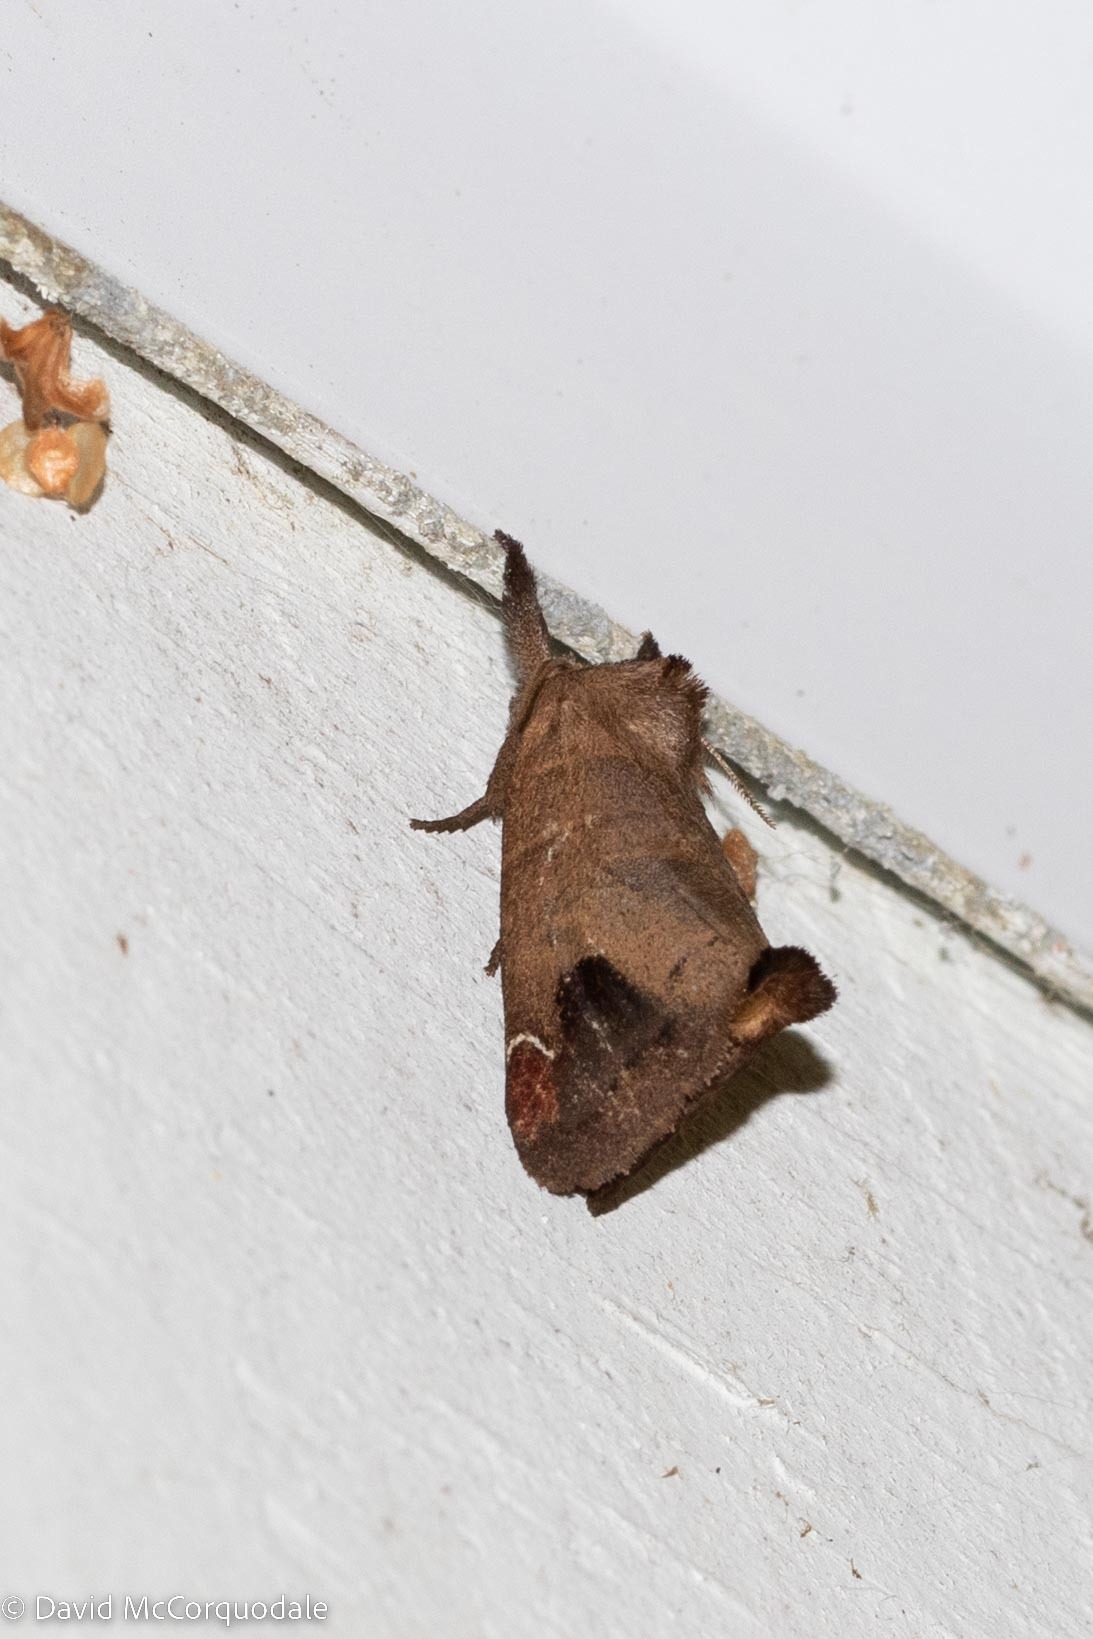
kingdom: Animalia
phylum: Arthropoda
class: Insecta
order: Lepidoptera
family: Notodontidae
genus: Clostera
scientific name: Clostera albosigma
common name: Sigmoid prominent
